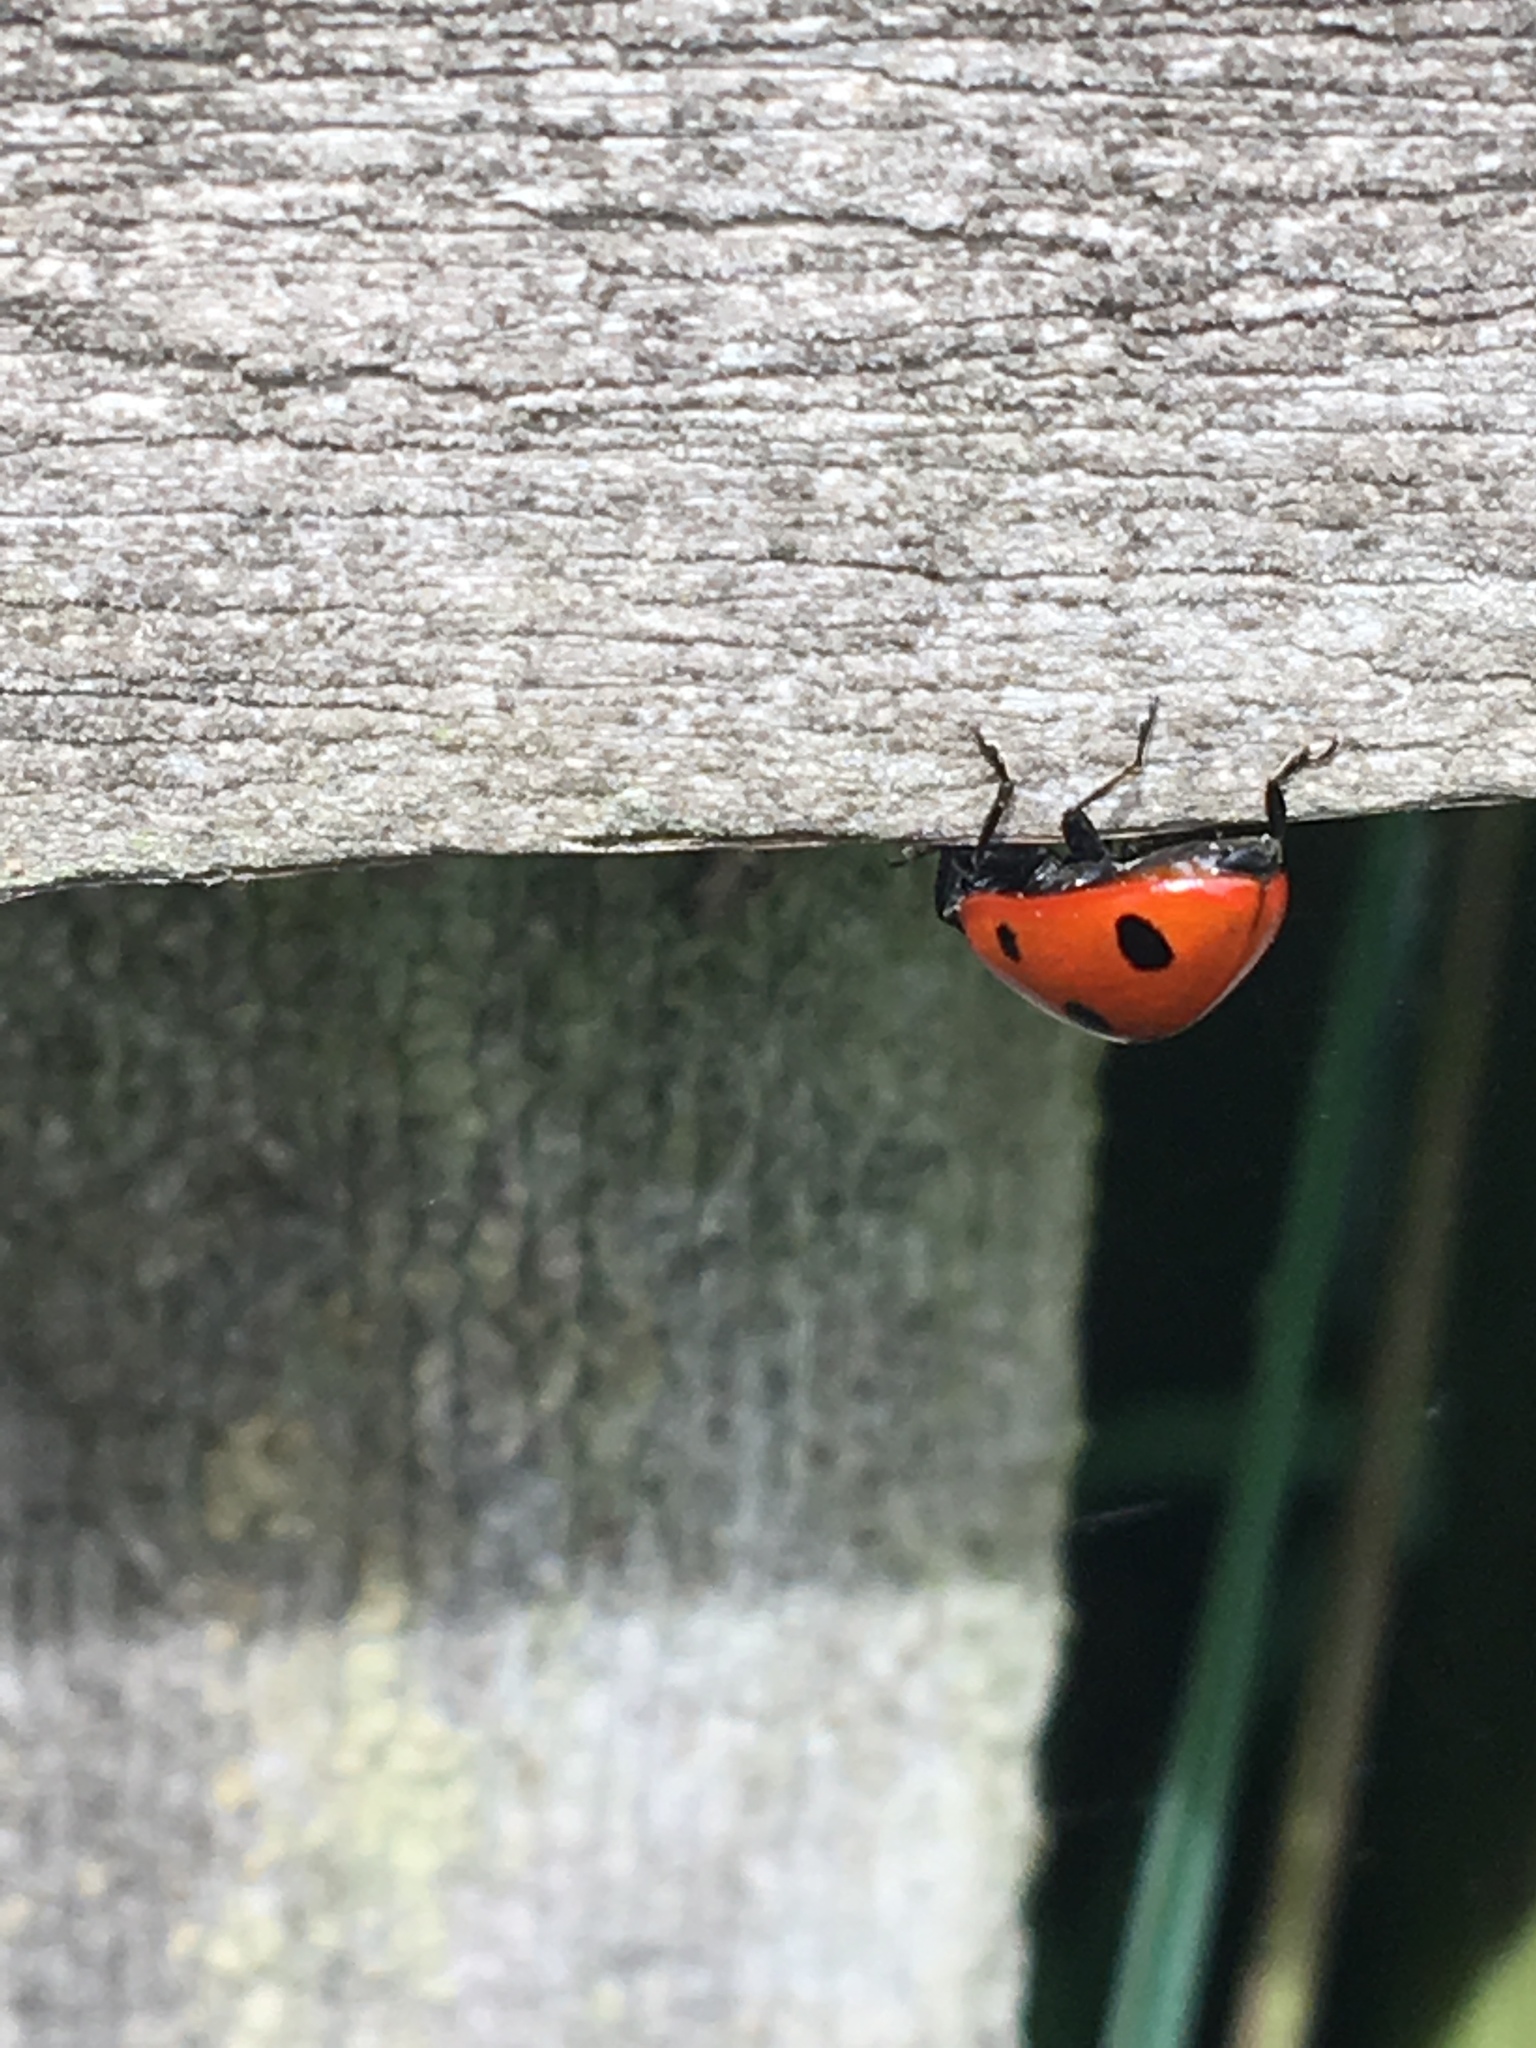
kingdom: Animalia
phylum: Arthropoda
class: Insecta
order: Coleoptera
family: Coccinellidae
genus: Coccinella
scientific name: Coccinella septempunctata
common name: Sevenspotted lady beetle
